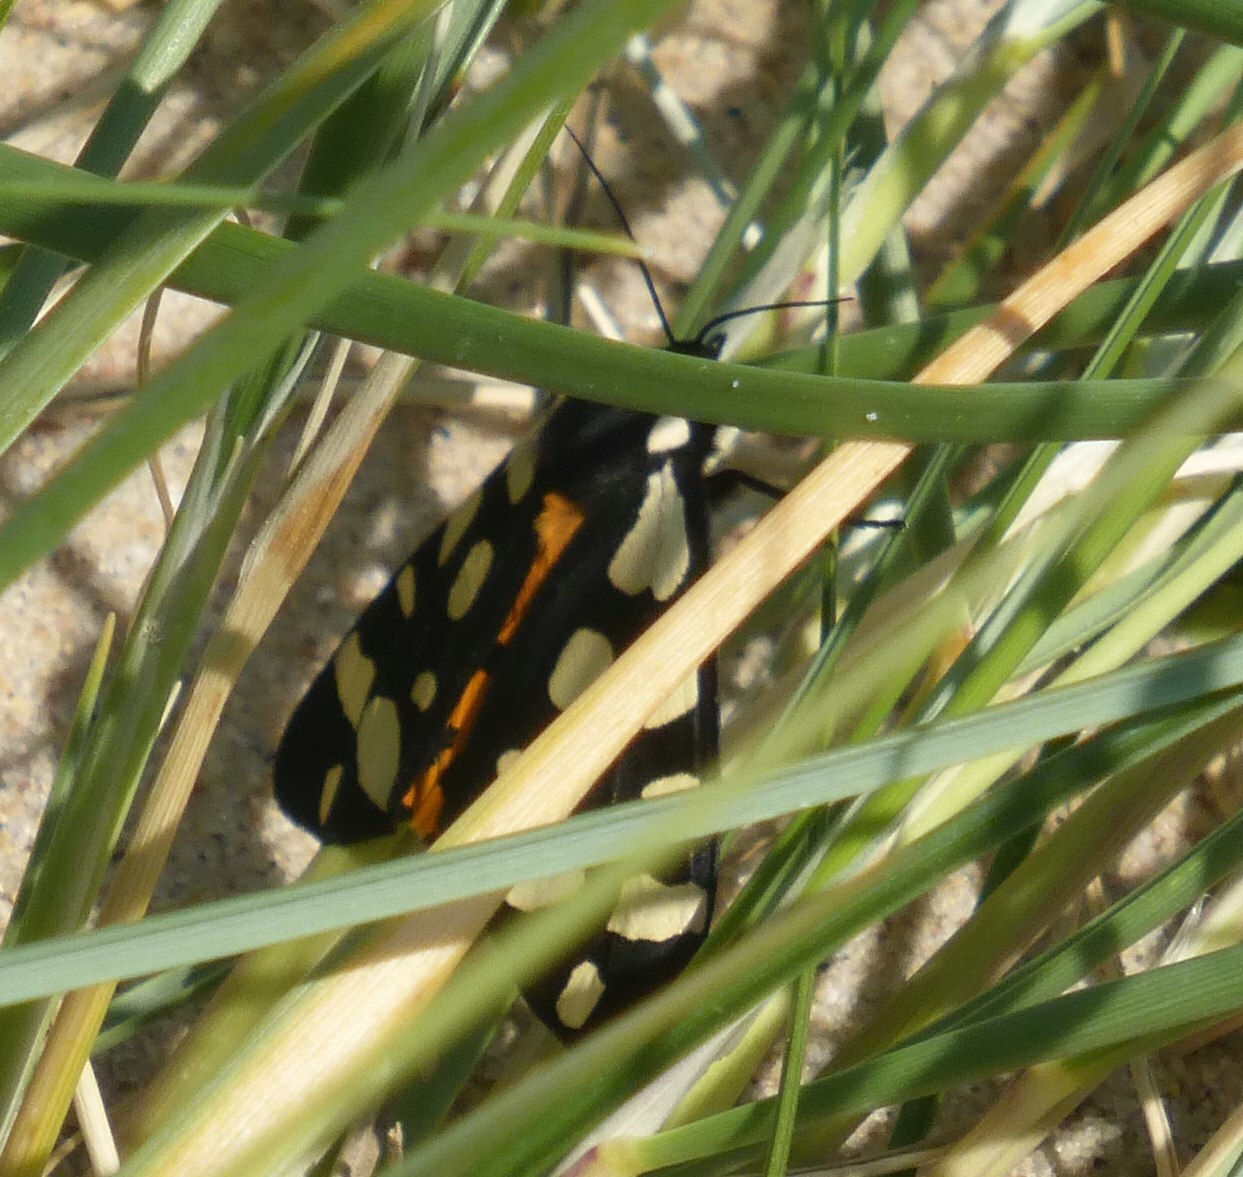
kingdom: Animalia
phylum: Arthropoda
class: Insecta
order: Lepidoptera
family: Erebidae
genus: Epicallia
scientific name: Epicallia villica
